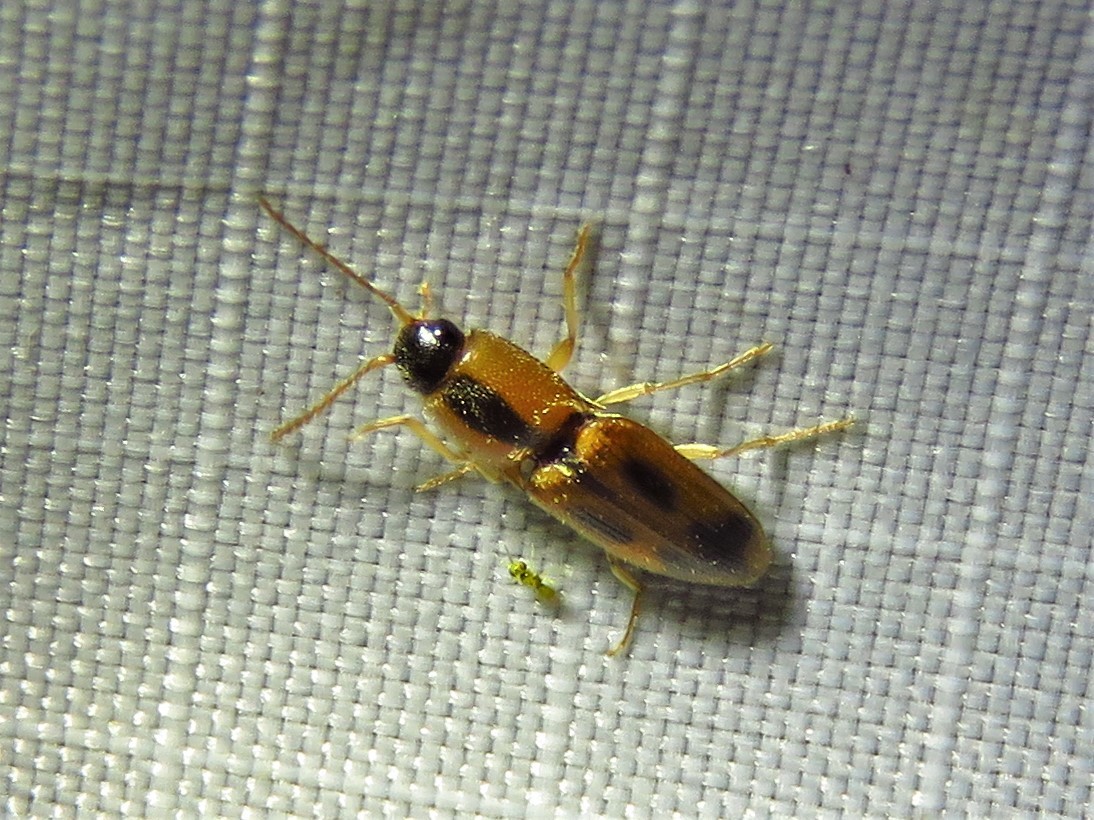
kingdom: Animalia
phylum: Arthropoda
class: Insecta
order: Coleoptera
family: Elateridae
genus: Aeolus
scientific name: Aeolus
